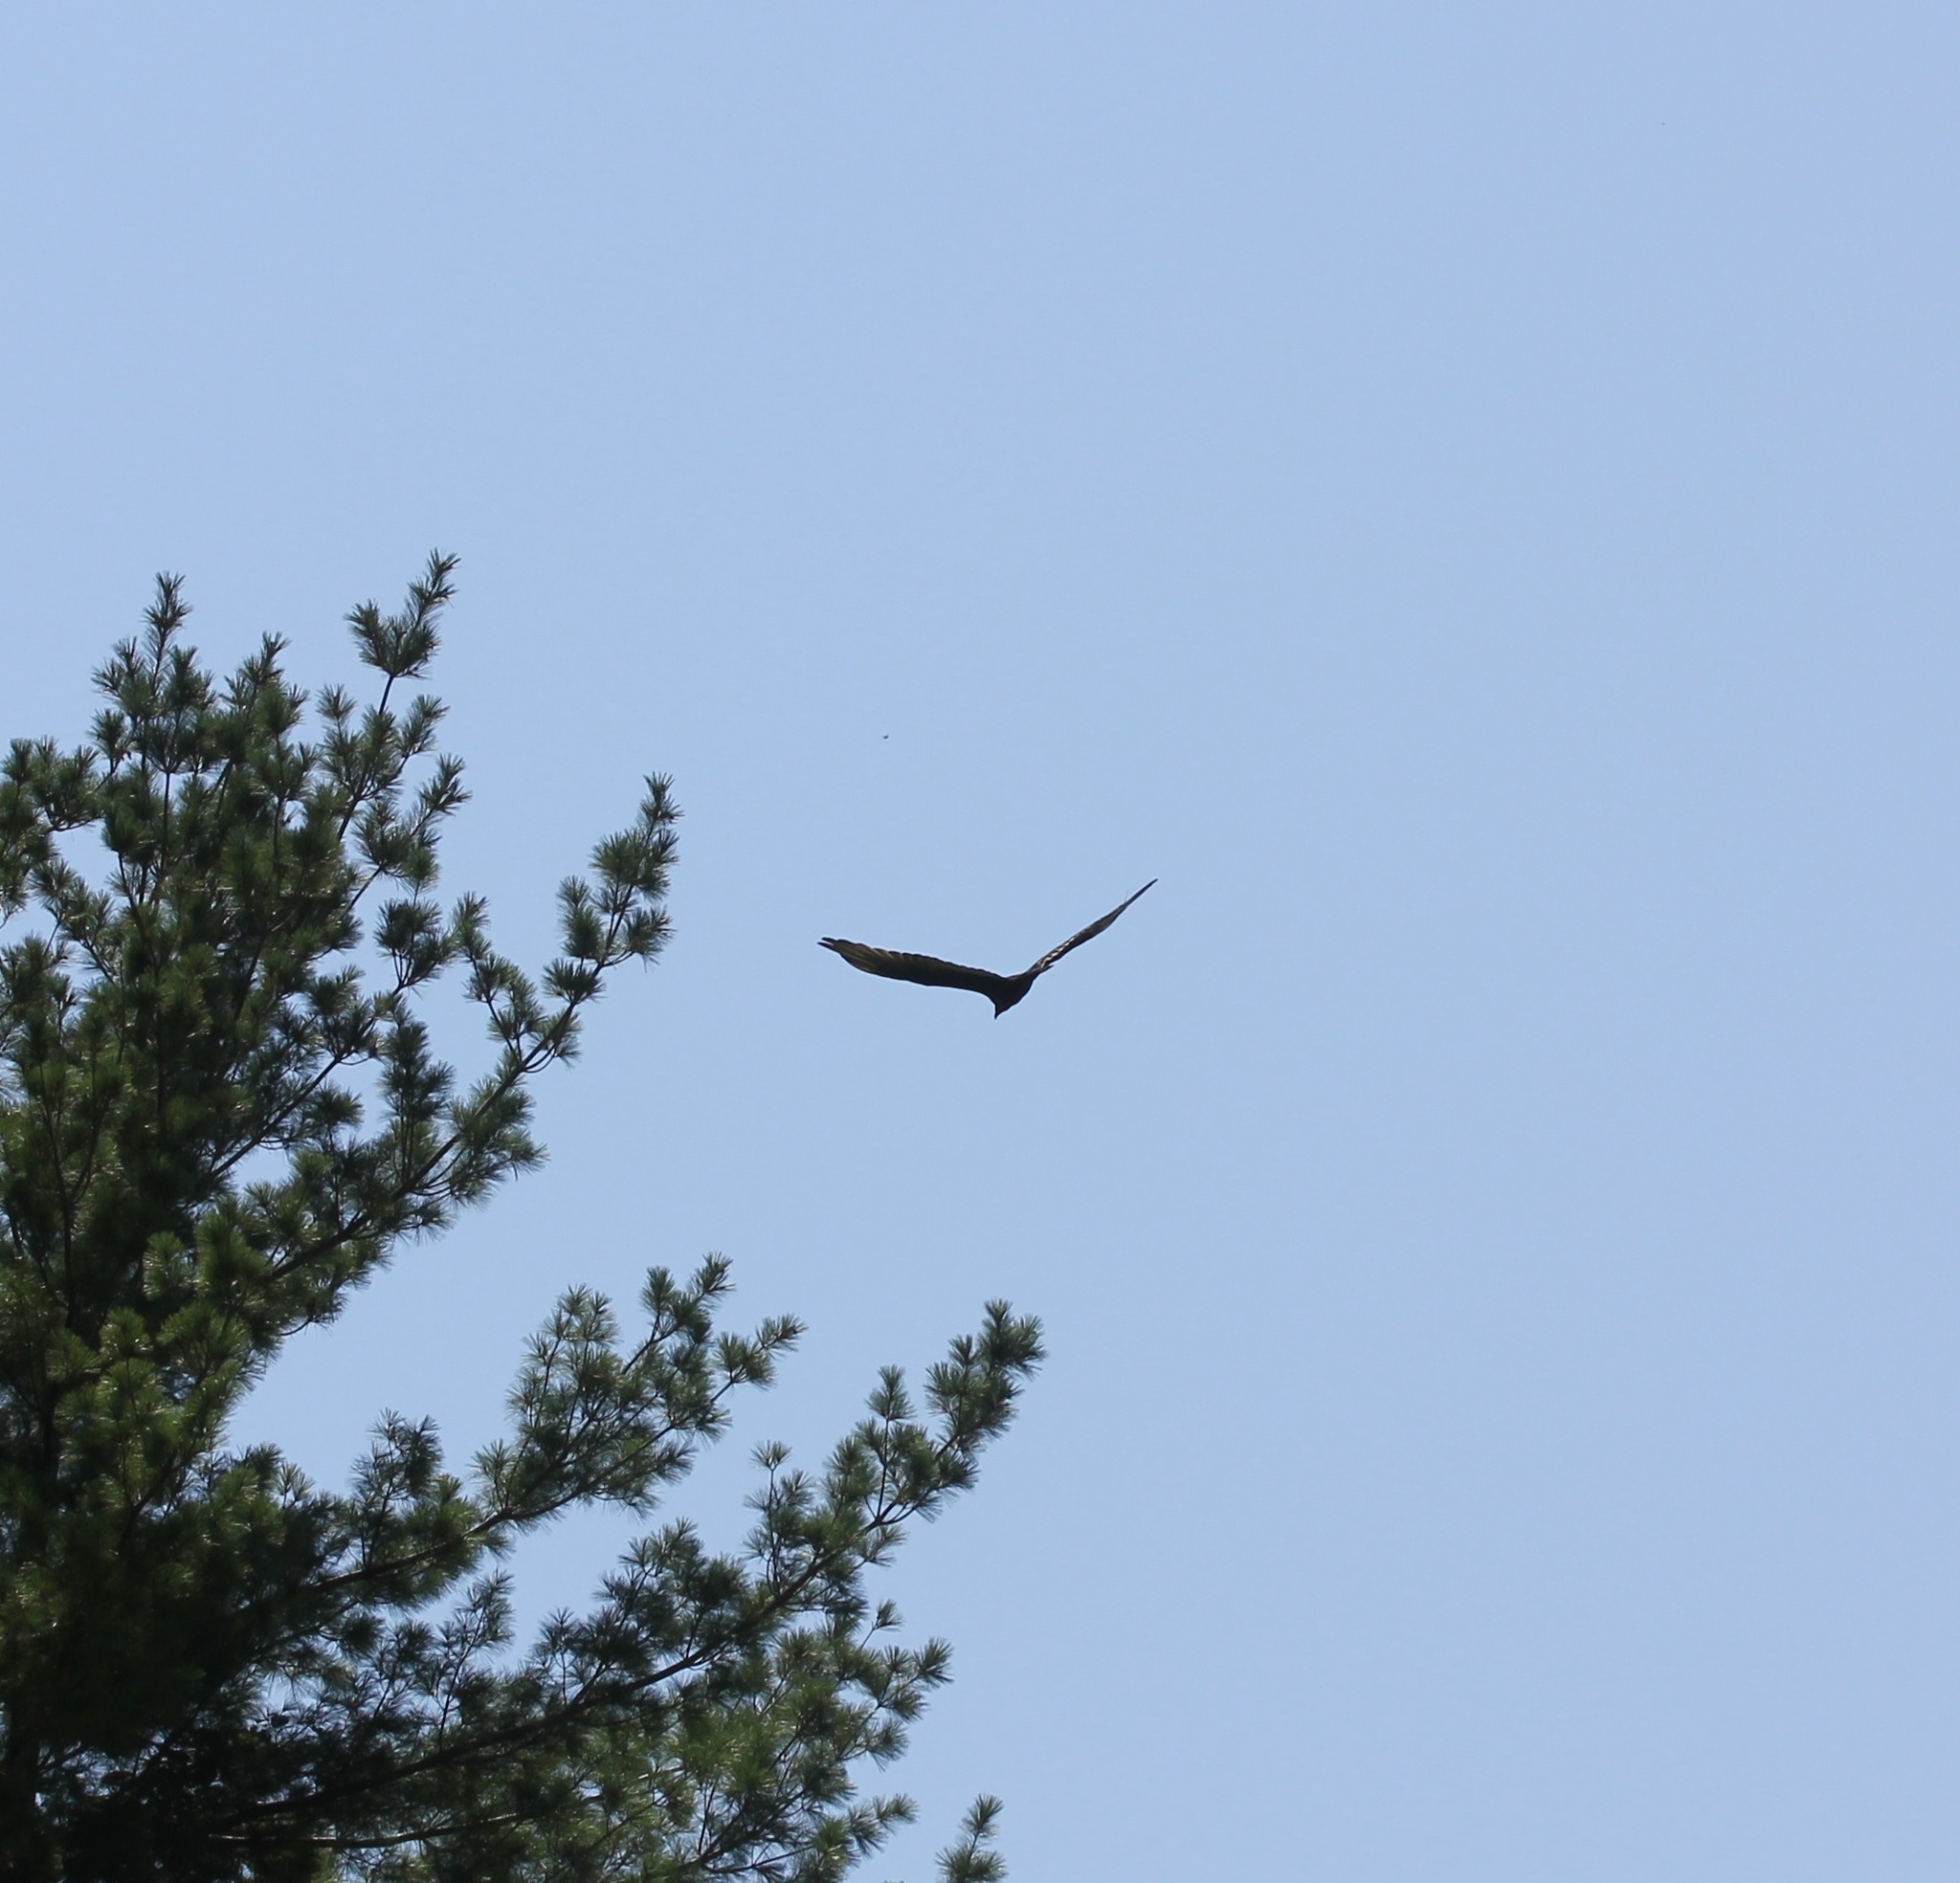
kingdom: Animalia
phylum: Chordata
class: Aves
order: Accipitriformes
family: Cathartidae
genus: Cathartes
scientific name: Cathartes aura
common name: Turkey vulture
